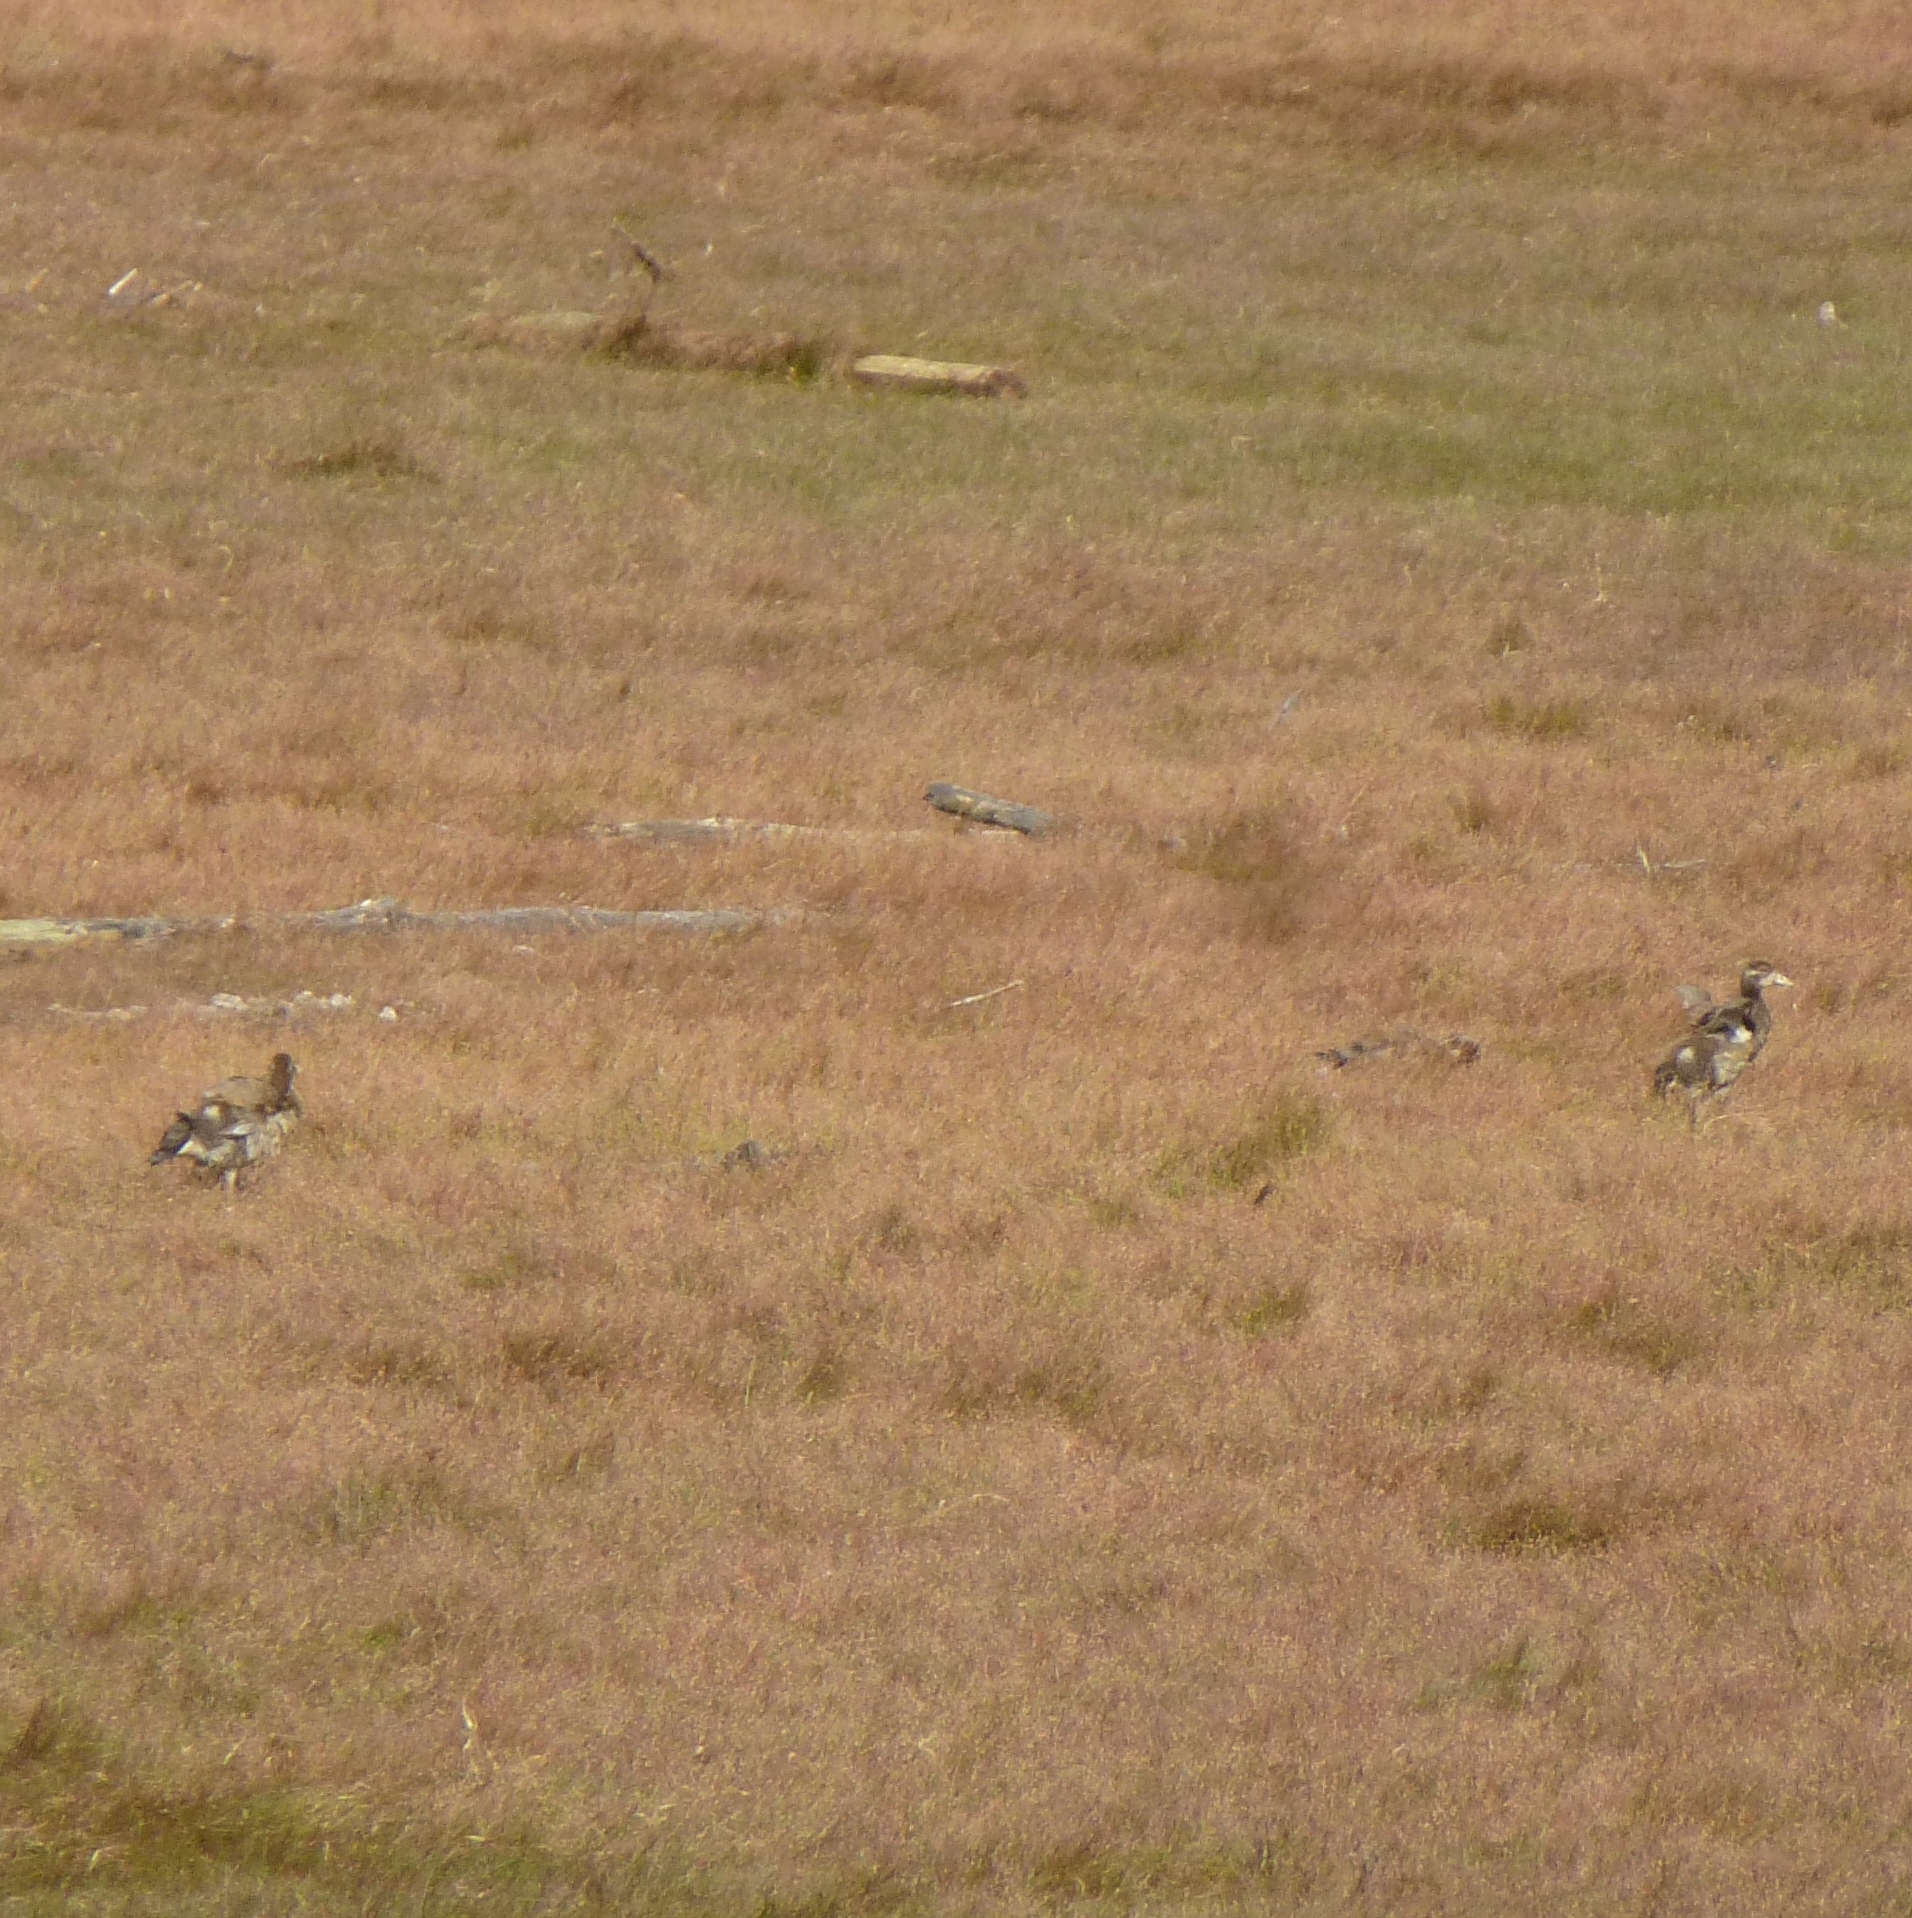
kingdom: Animalia
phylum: Chordata
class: Aves
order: Anseriformes
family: Anatidae
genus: Alopochen
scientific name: Alopochen aegyptiaca
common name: Egyptian goose
